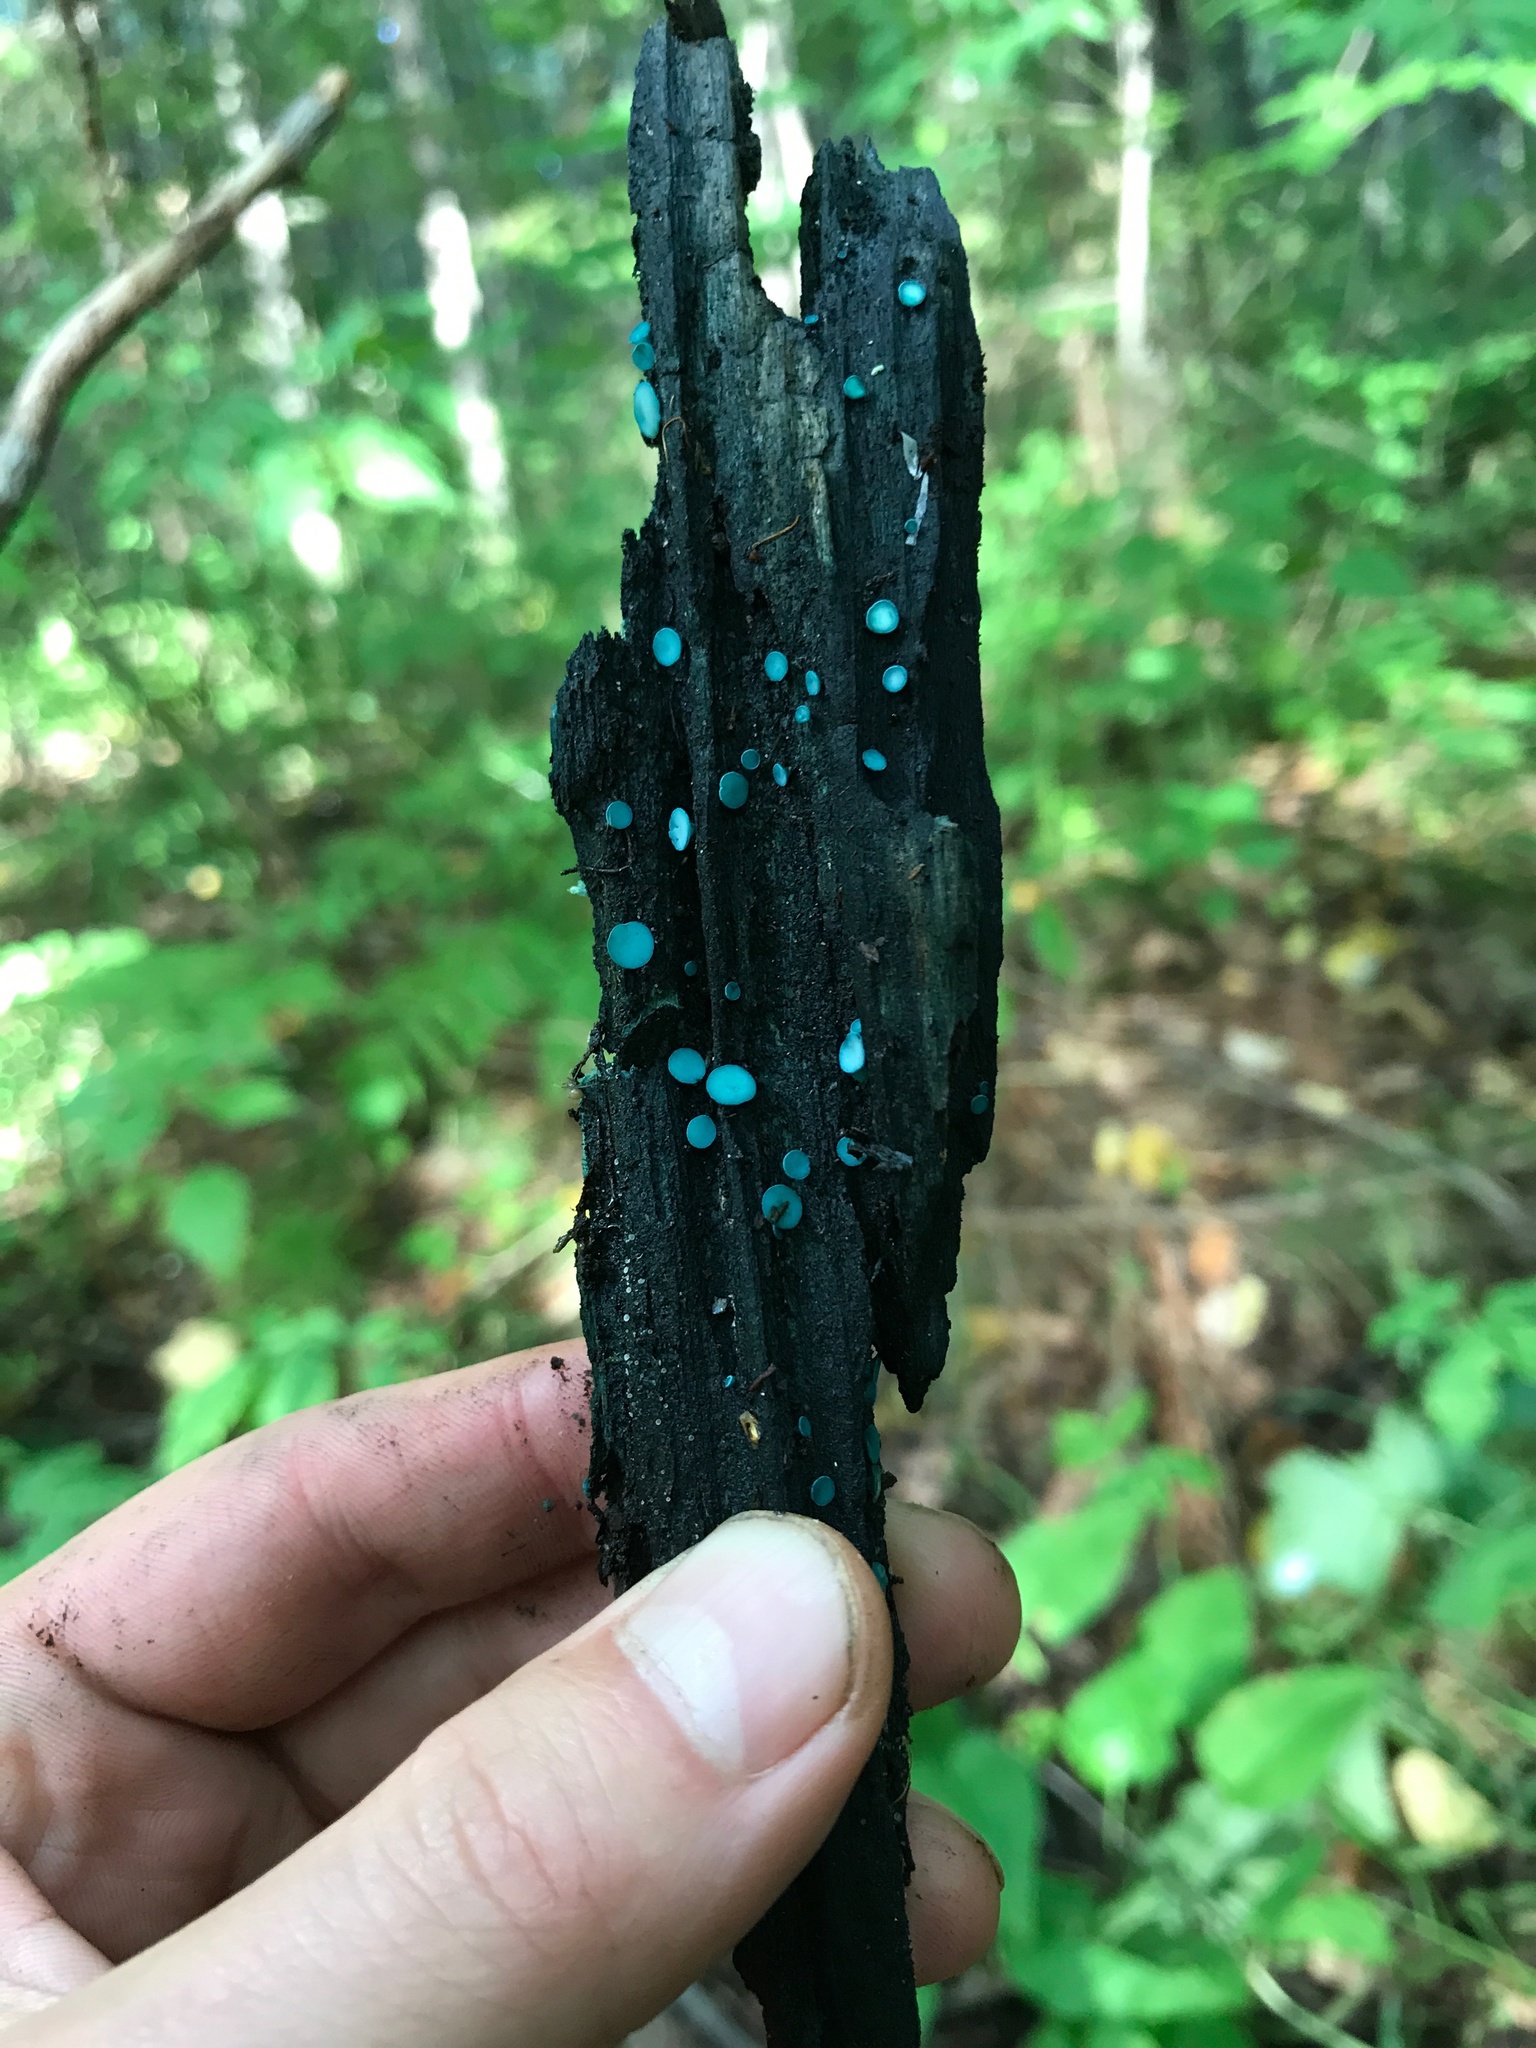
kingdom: Fungi
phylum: Ascomycota
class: Leotiomycetes
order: Helotiales
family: Chlorociboriaceae
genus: Chlorociboria
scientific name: Chlorociboria aeruginosa
